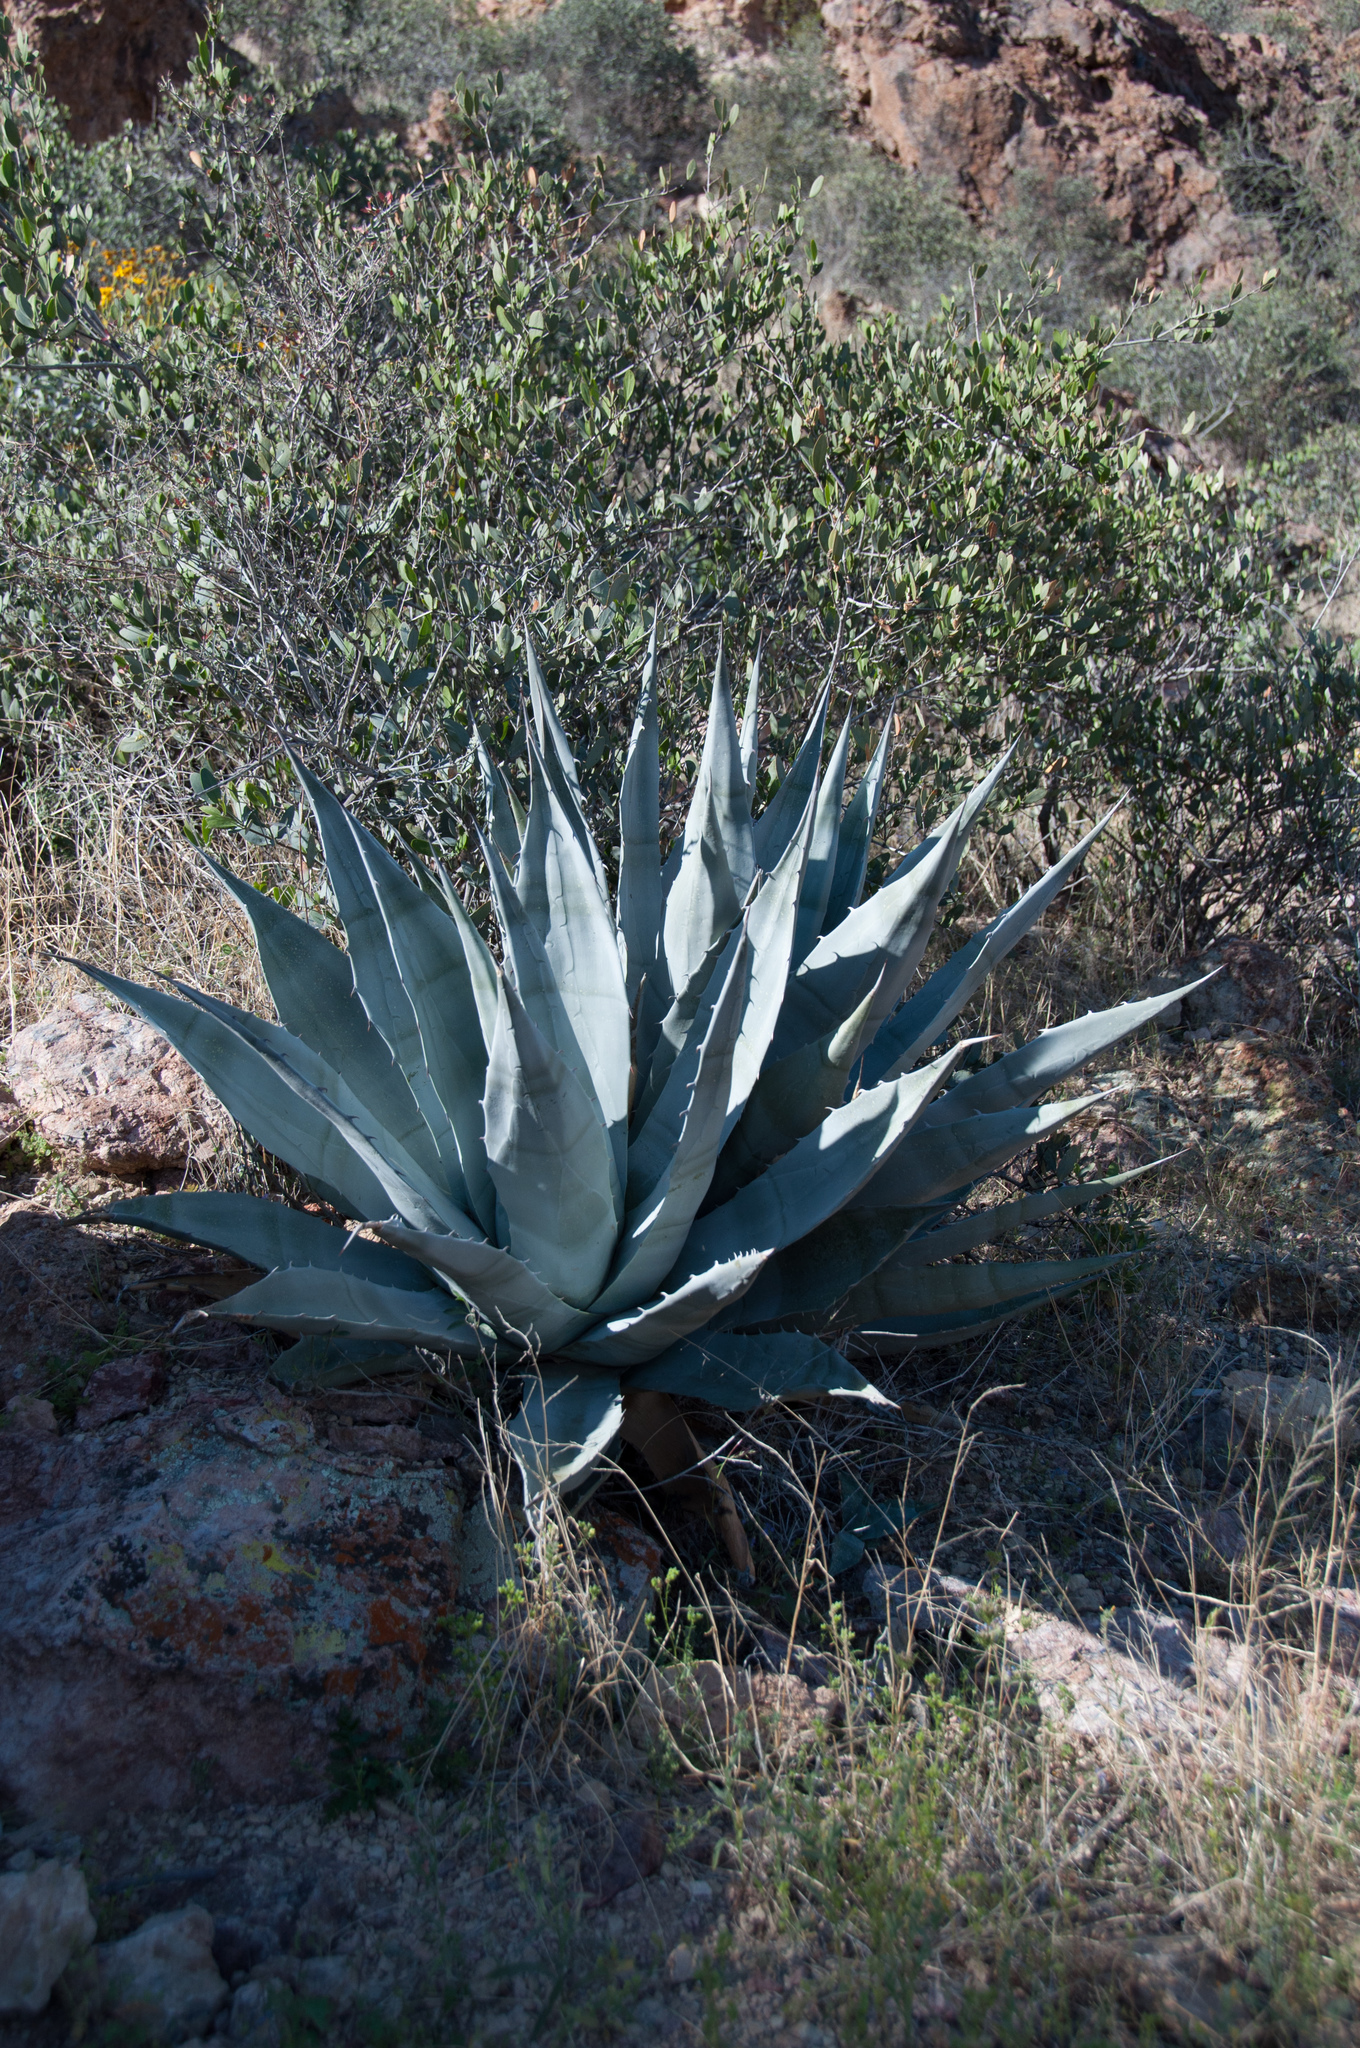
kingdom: Plantae
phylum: Tracheophyta
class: Liliopsida
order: Asparagales
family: Asparagaceae
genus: Agave
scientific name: Agave simplex
